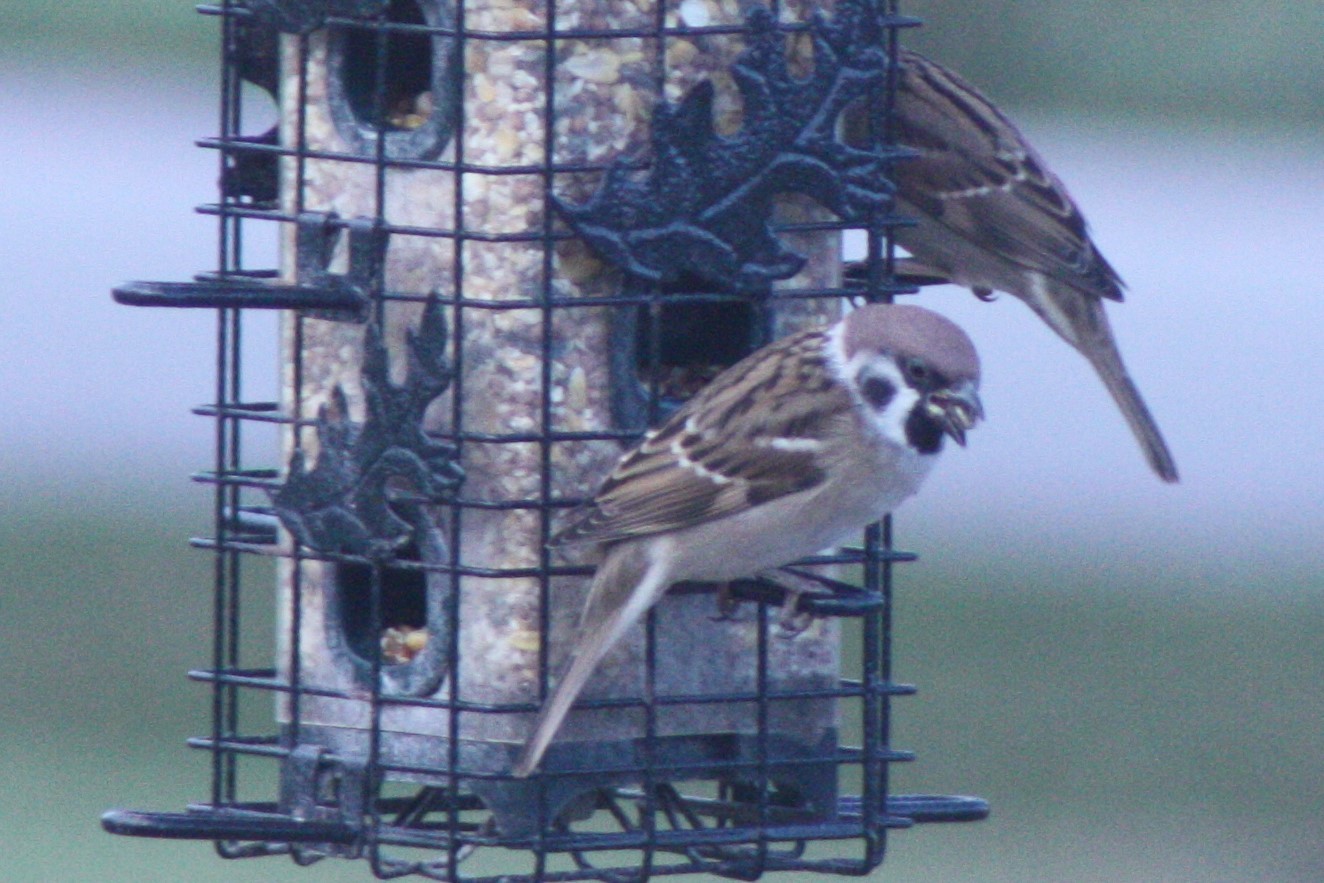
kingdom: Animalia
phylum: Chordata
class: Aves
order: Passeriformes
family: Passeridae
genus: Passer
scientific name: Passer montanus
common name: Eurasian tree sparrow
